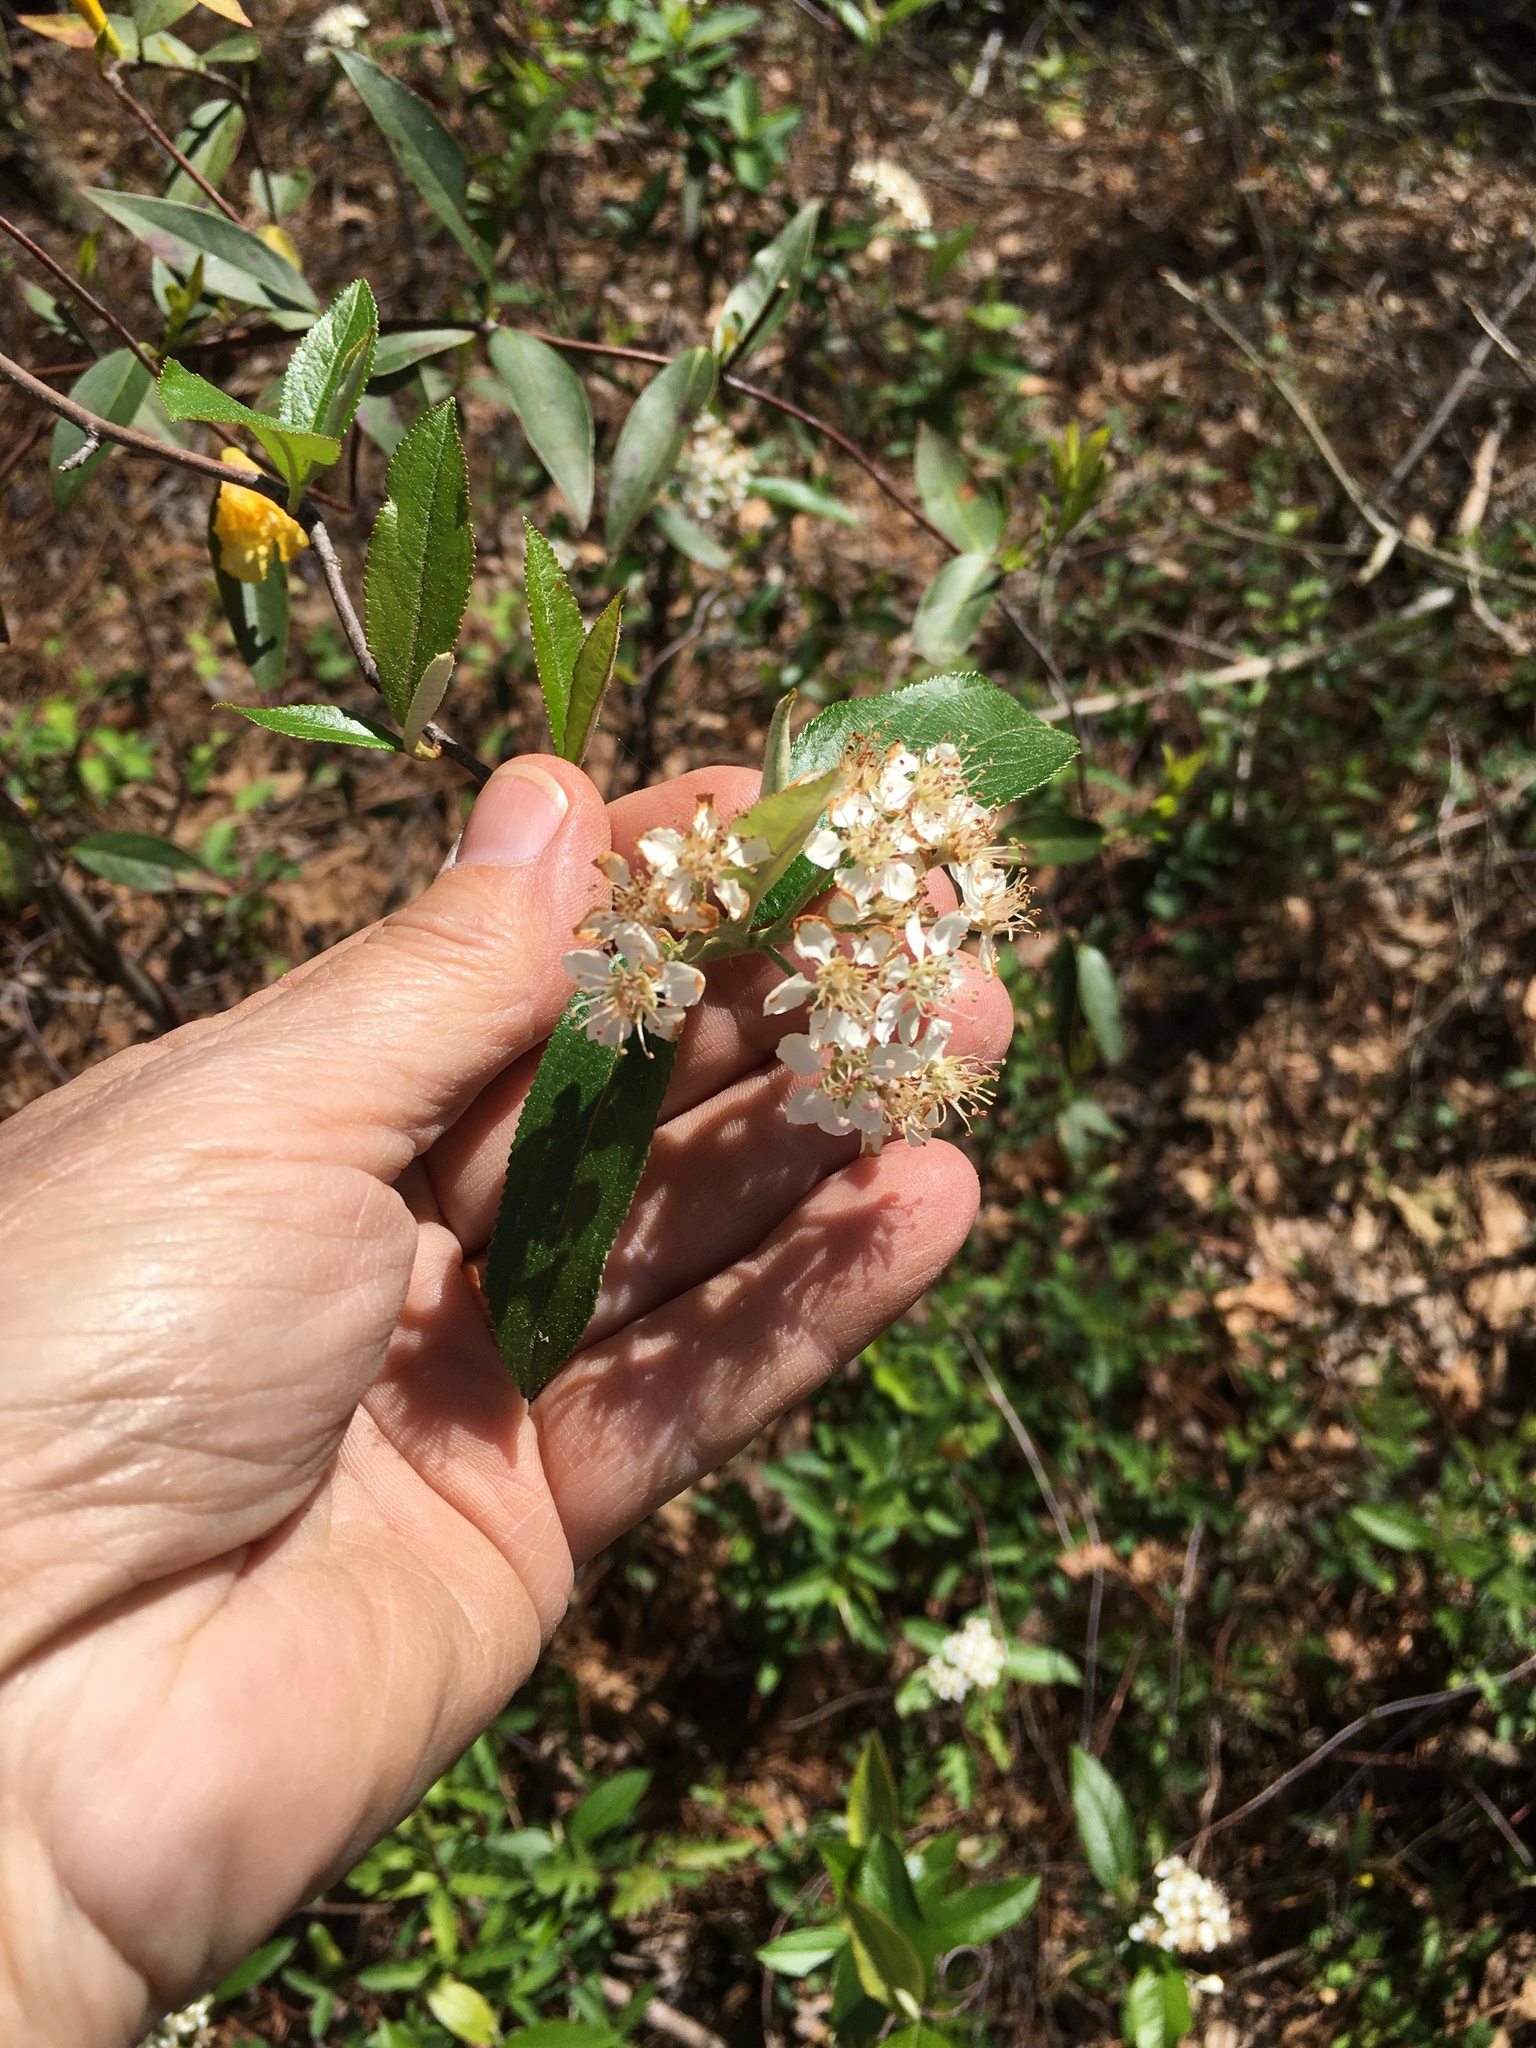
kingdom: Plantae
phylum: Tracheophyta
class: Magnoliopsida
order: Rosales
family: Rosaceae
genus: Aronia
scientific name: Aronia arbutifolia
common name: Red chokeberry
